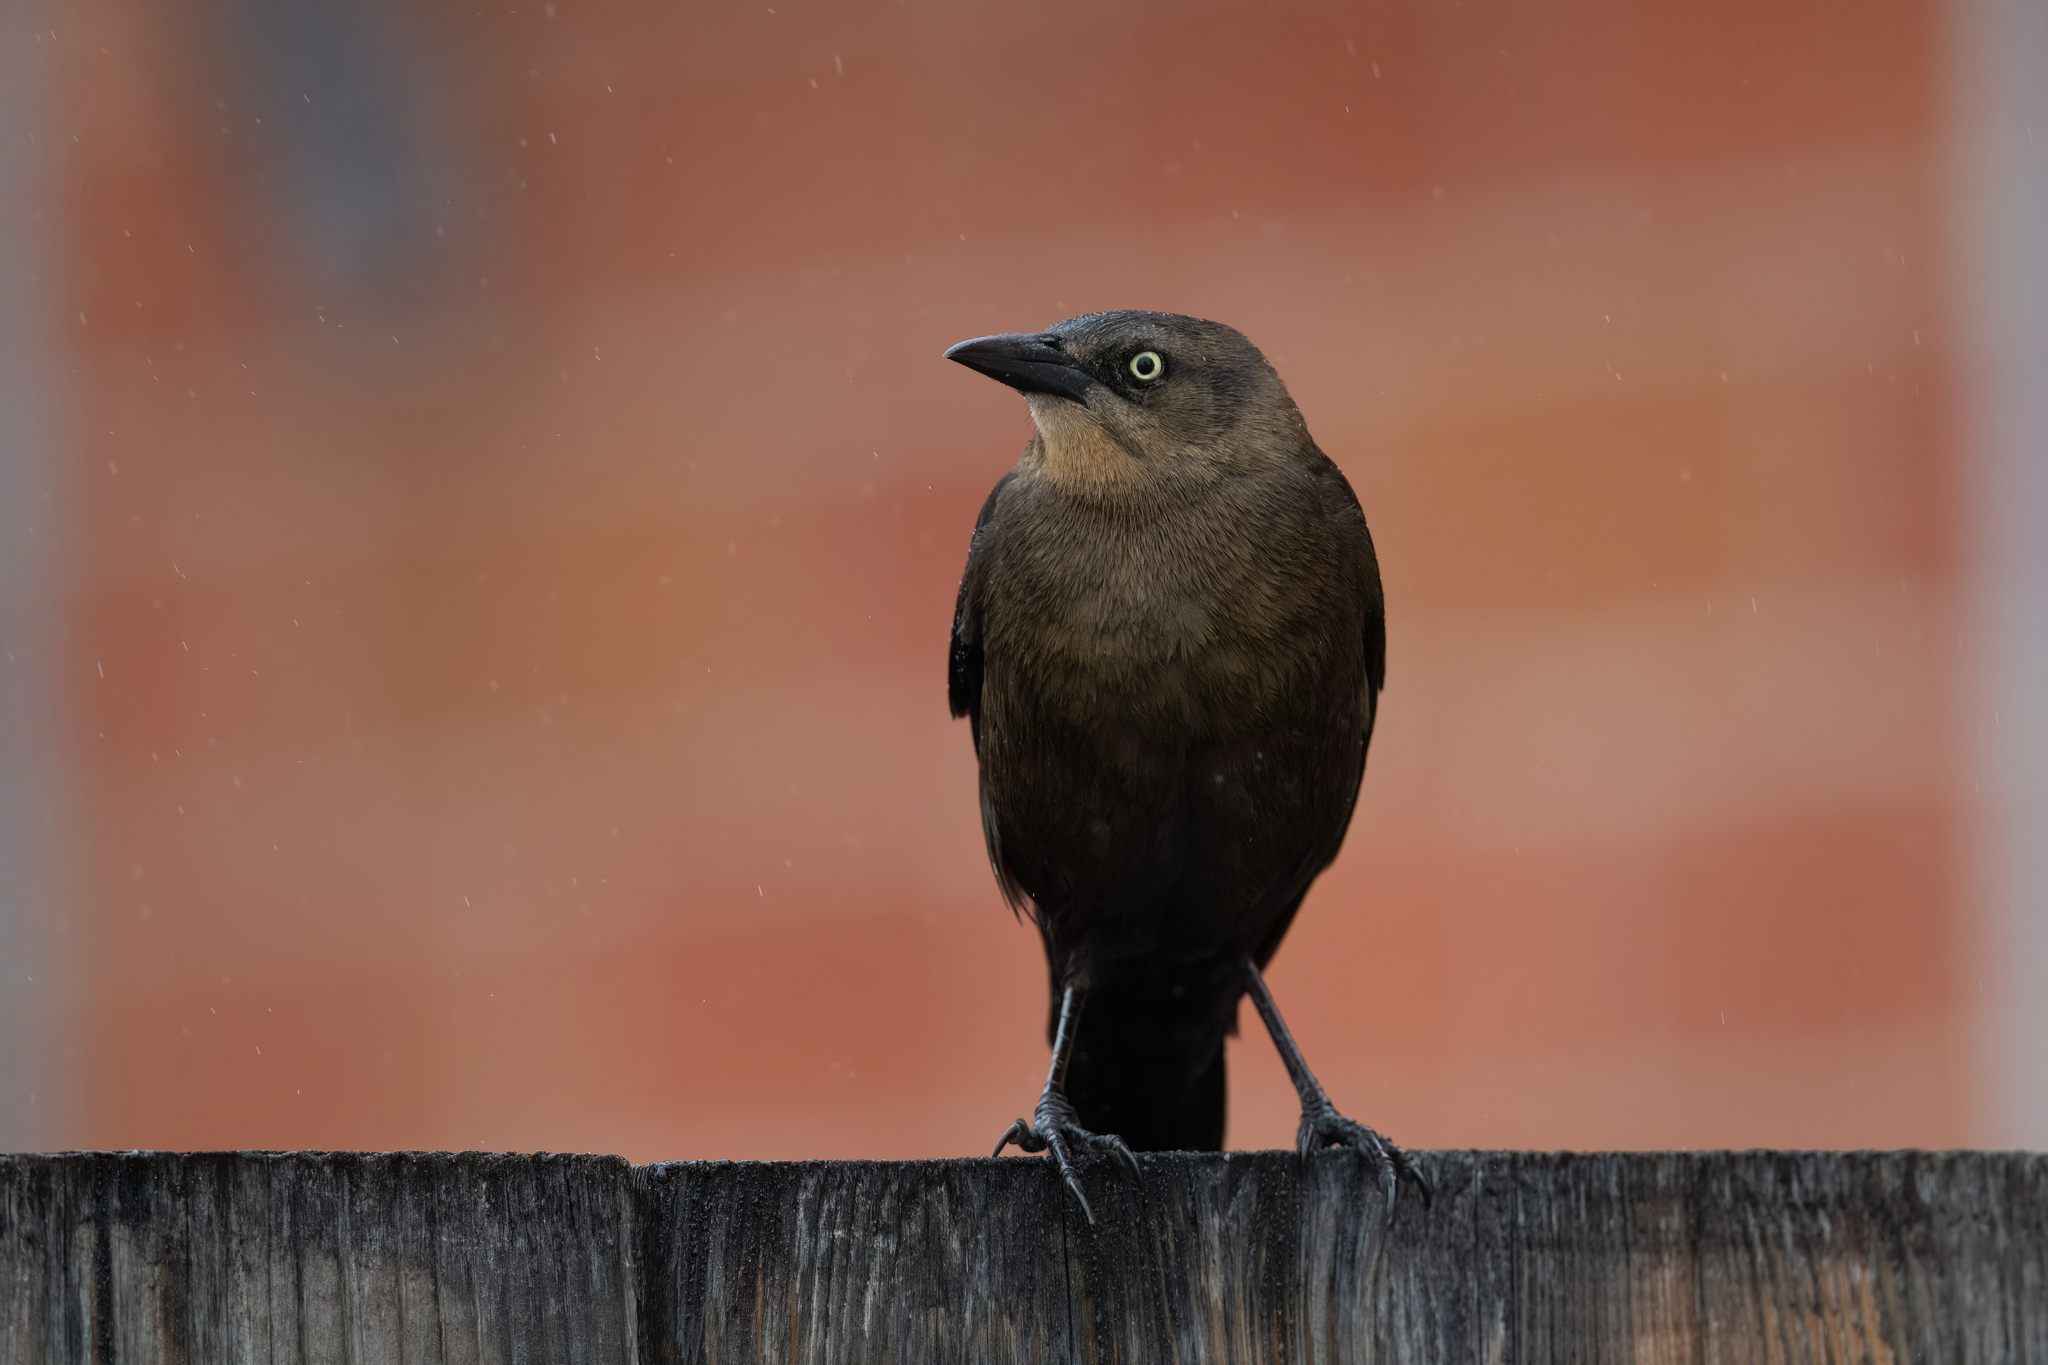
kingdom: Animalia
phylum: Chordata
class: Aves
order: Passeriformes
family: Icteridae
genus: Quiscalus
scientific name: Quiscalus mexicanus
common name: Great-tailed grackle
